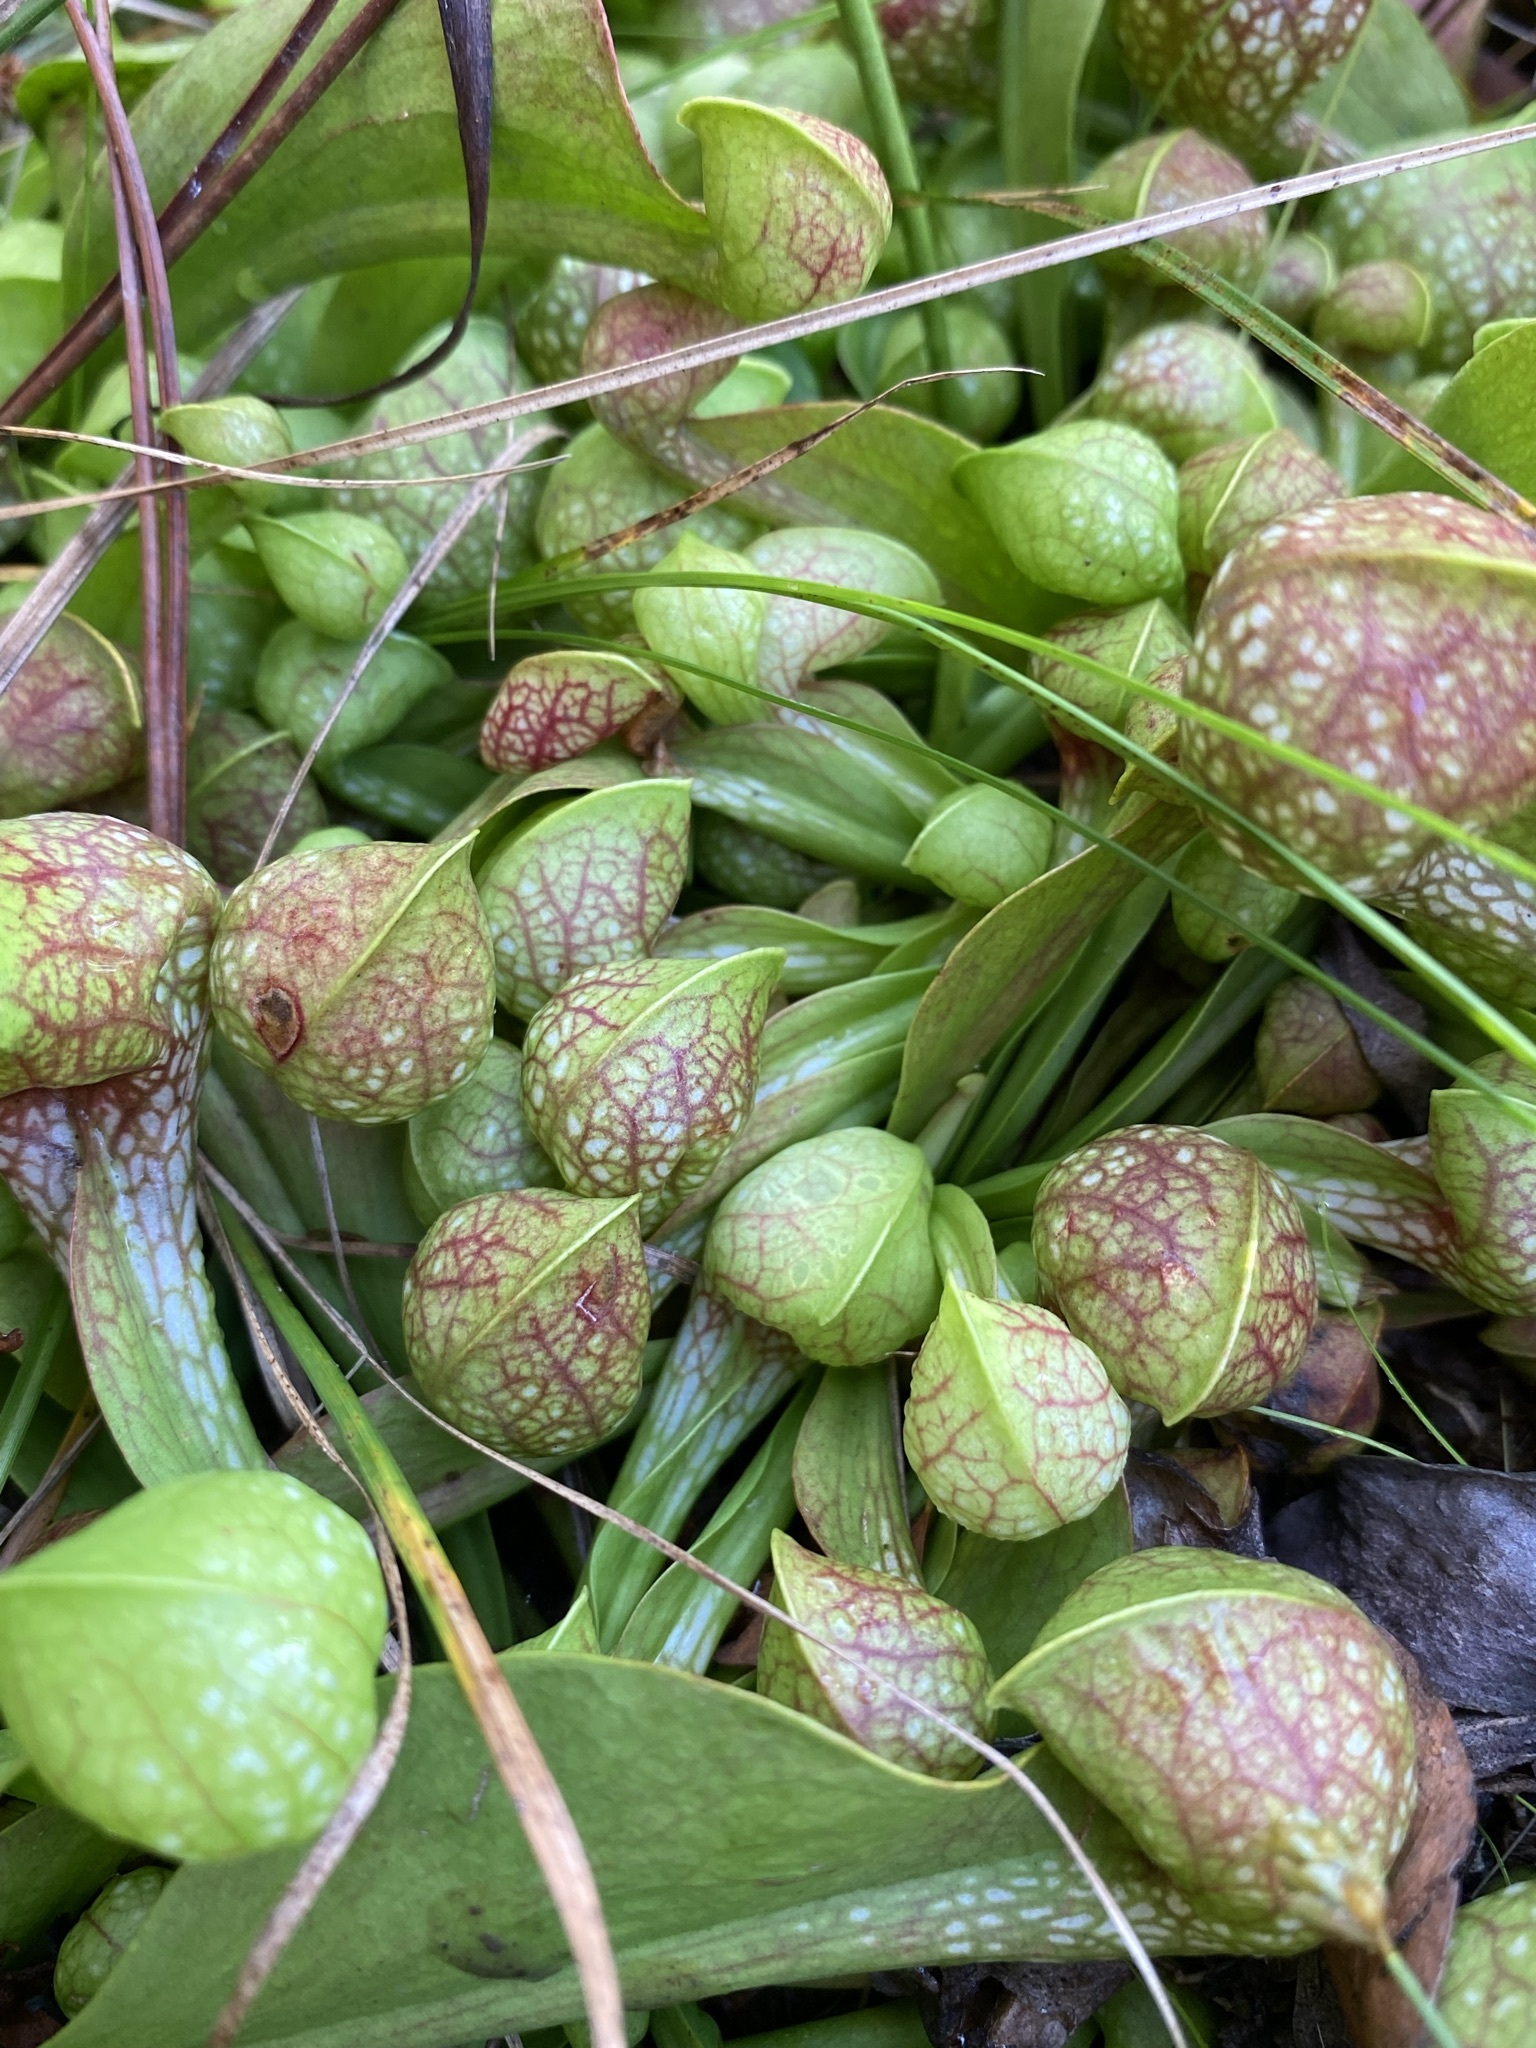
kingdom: Plantae
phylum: Tracheophyta
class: Magnoliopsida
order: Ericales
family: Sarraceniaceae
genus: Sarracenia
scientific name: Sarracenia psittacina
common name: Parrot pitcherplant
